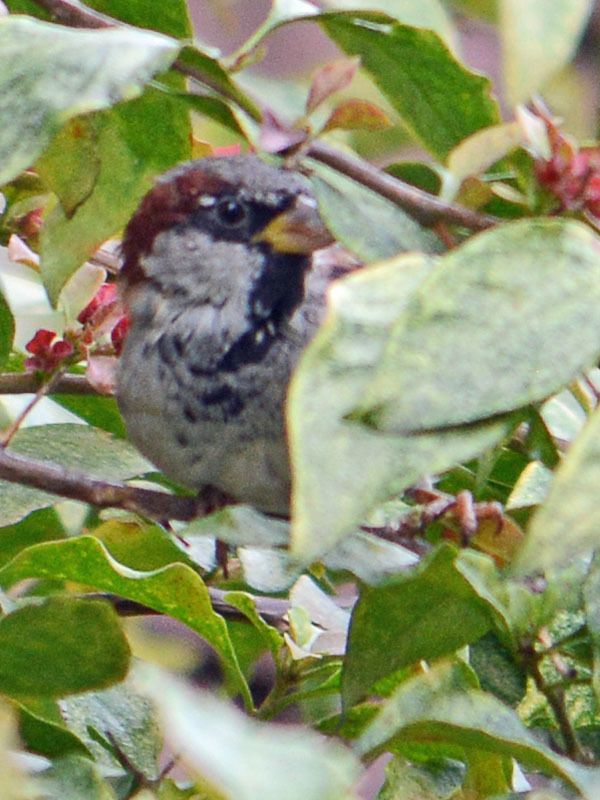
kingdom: Animalia
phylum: Chordata
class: Aves
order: Passeriformes
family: Passeridae
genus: Passer
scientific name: Passer domesticus
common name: House sparrow
